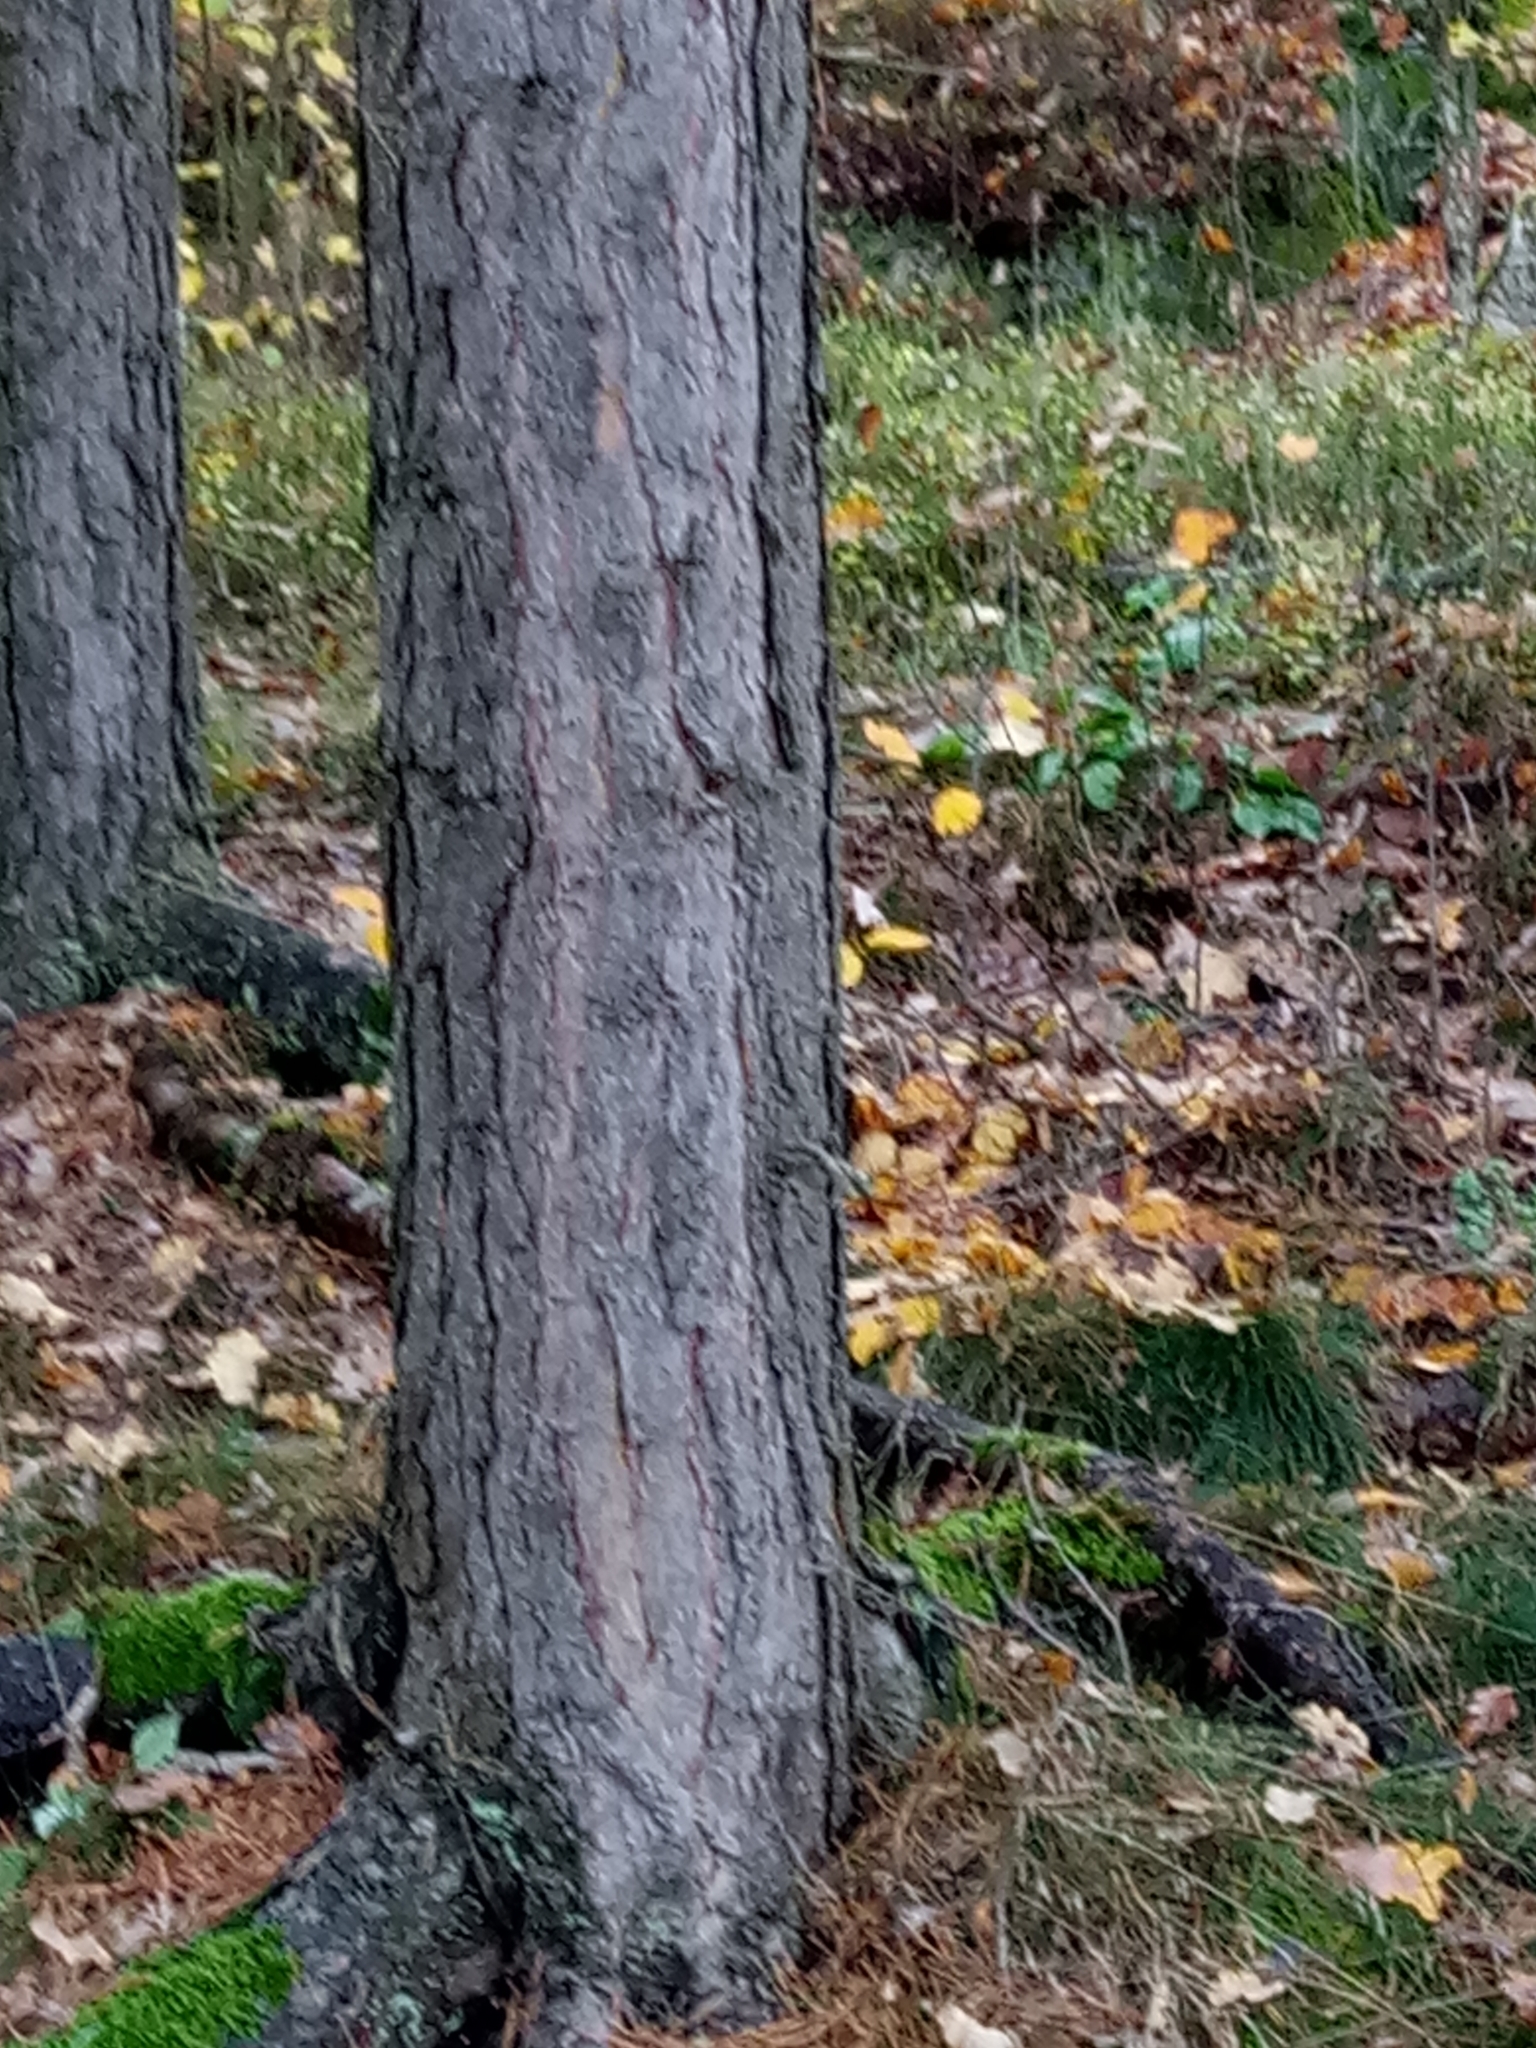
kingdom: Plantae
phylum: Tracheophyta
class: Pinopsida
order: Pinales
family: Pinaceae
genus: Pinus
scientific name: Pinus sylvestris
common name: Scots pine
